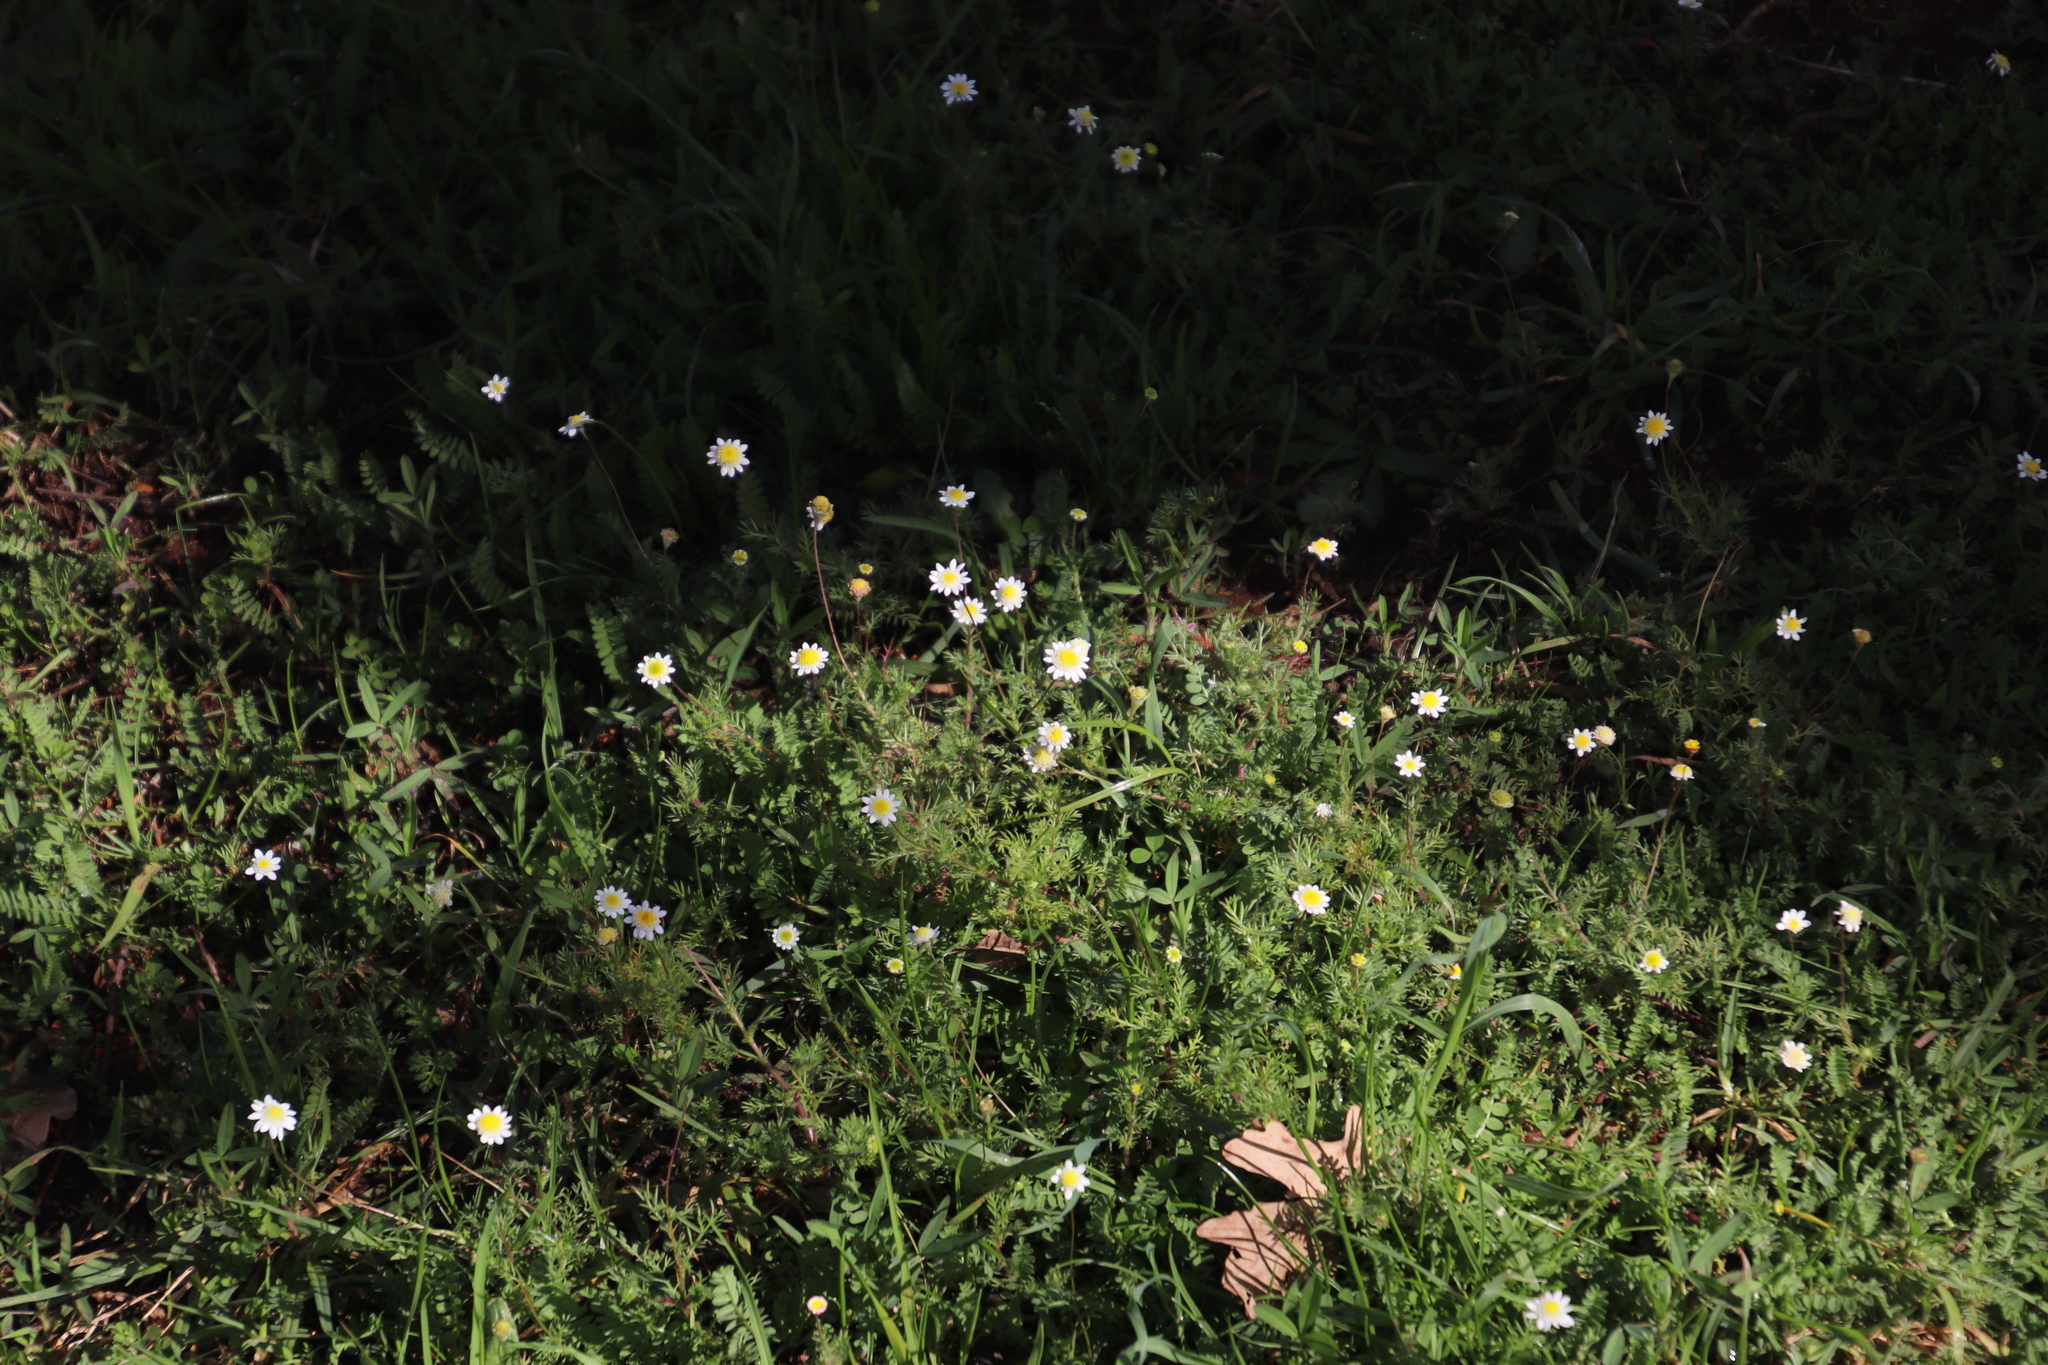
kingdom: Plantae
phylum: Tracheophyta
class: Magnoliopsida
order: Asterales
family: Asteraceae
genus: Cotula
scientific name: Cotula turbinata
